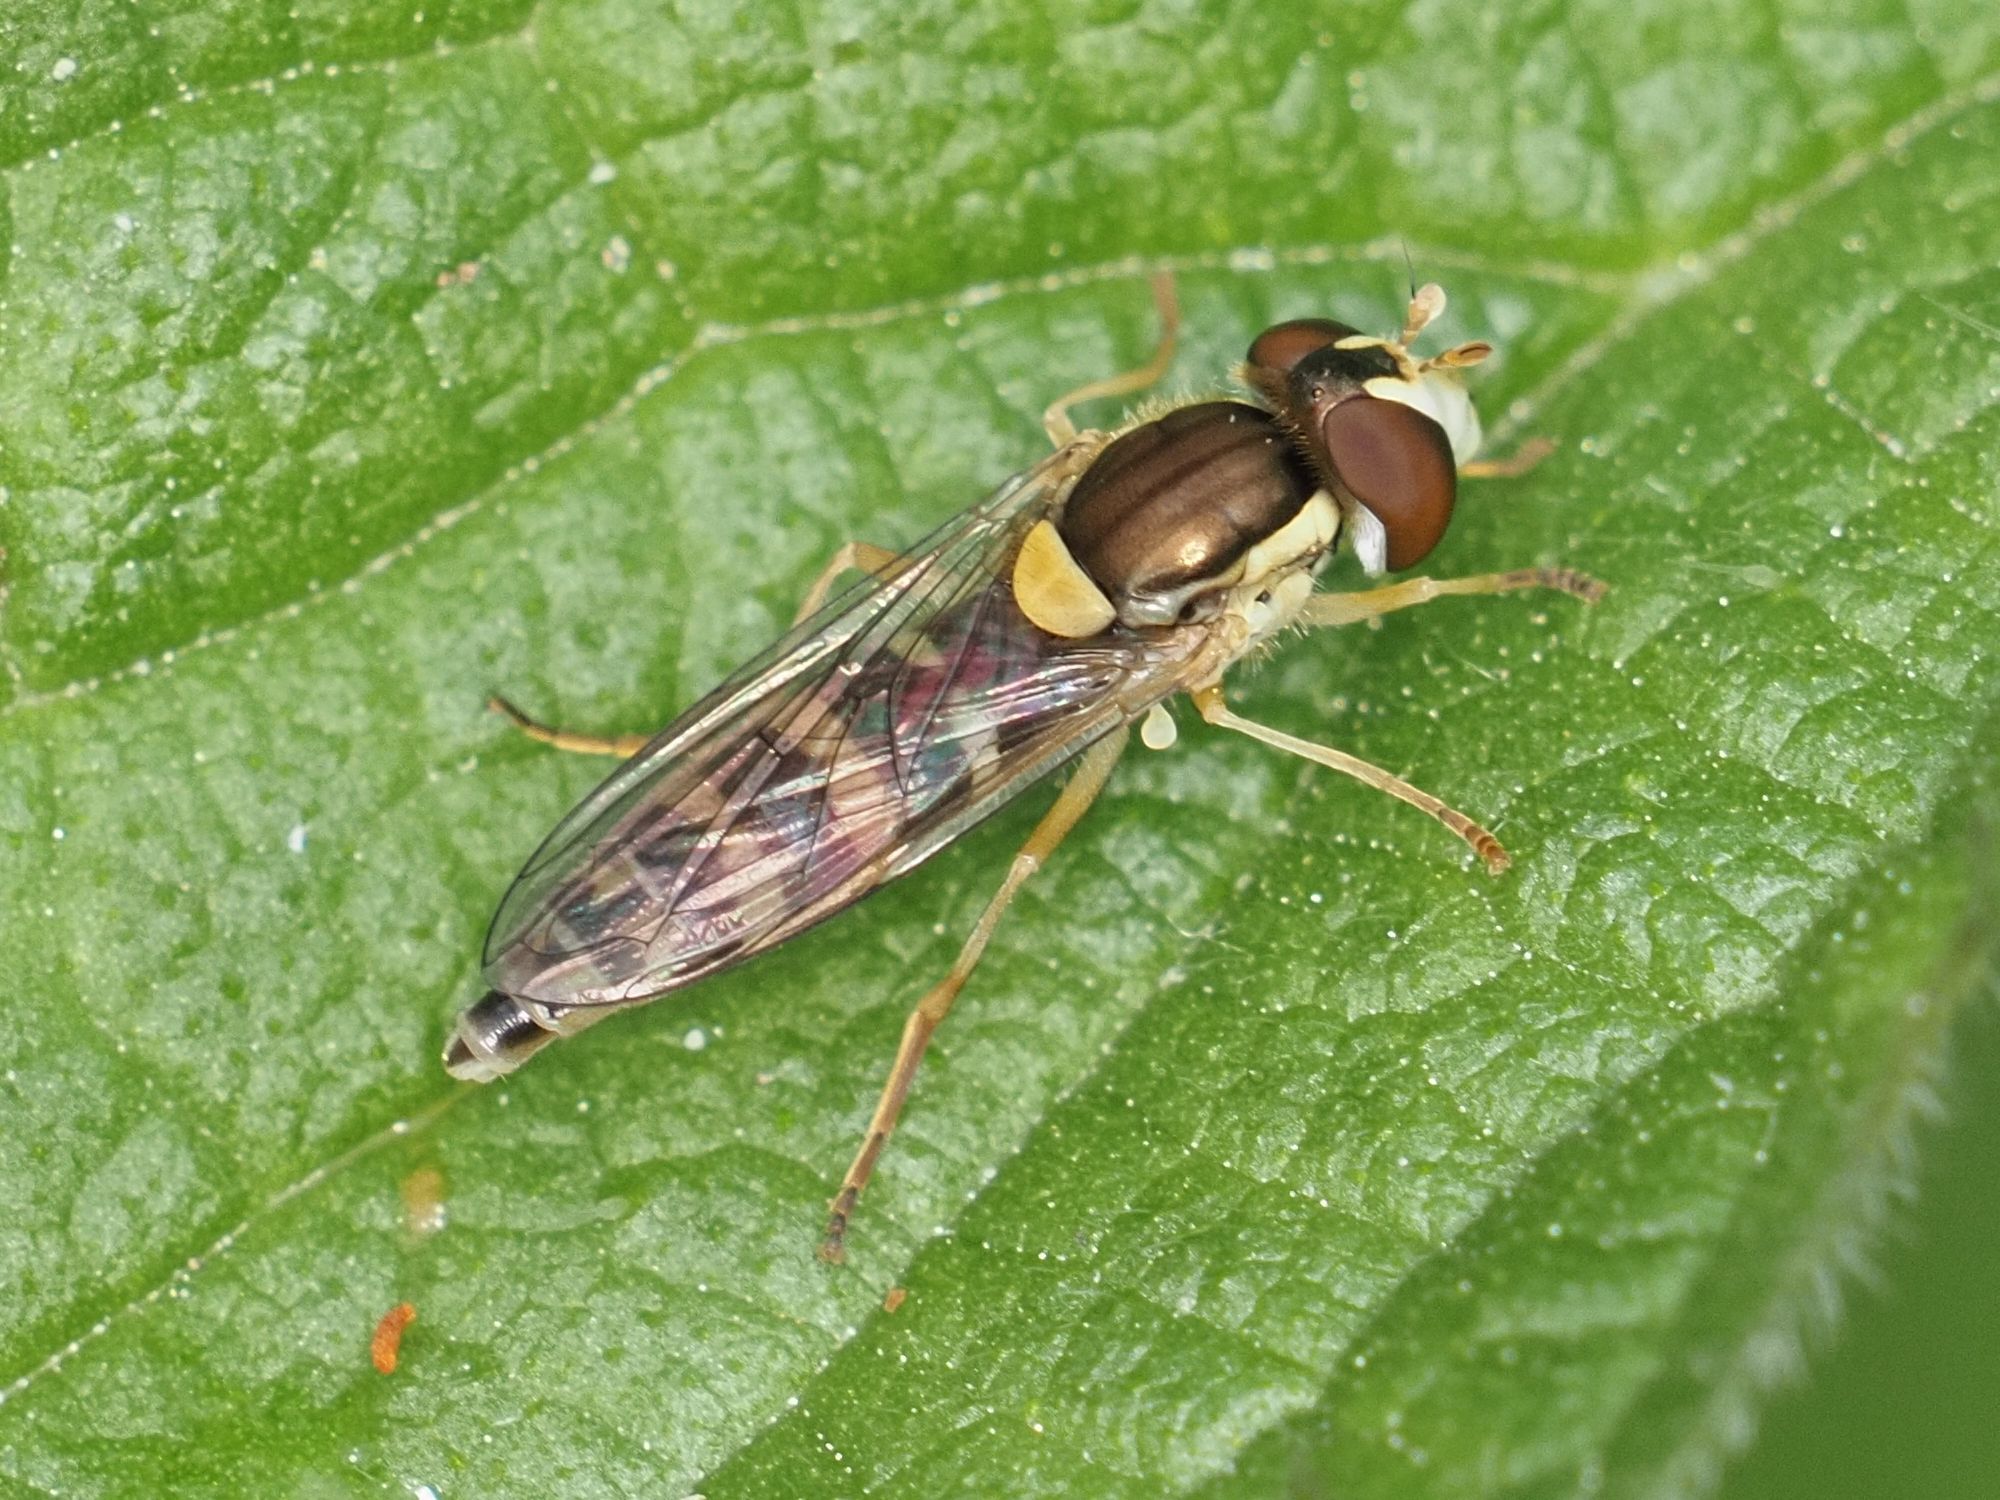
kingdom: Animalia
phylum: Arthropoda
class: Insecta
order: Diptera
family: Syrphidae
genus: Sphaerophoria
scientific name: Sphaerophoria
